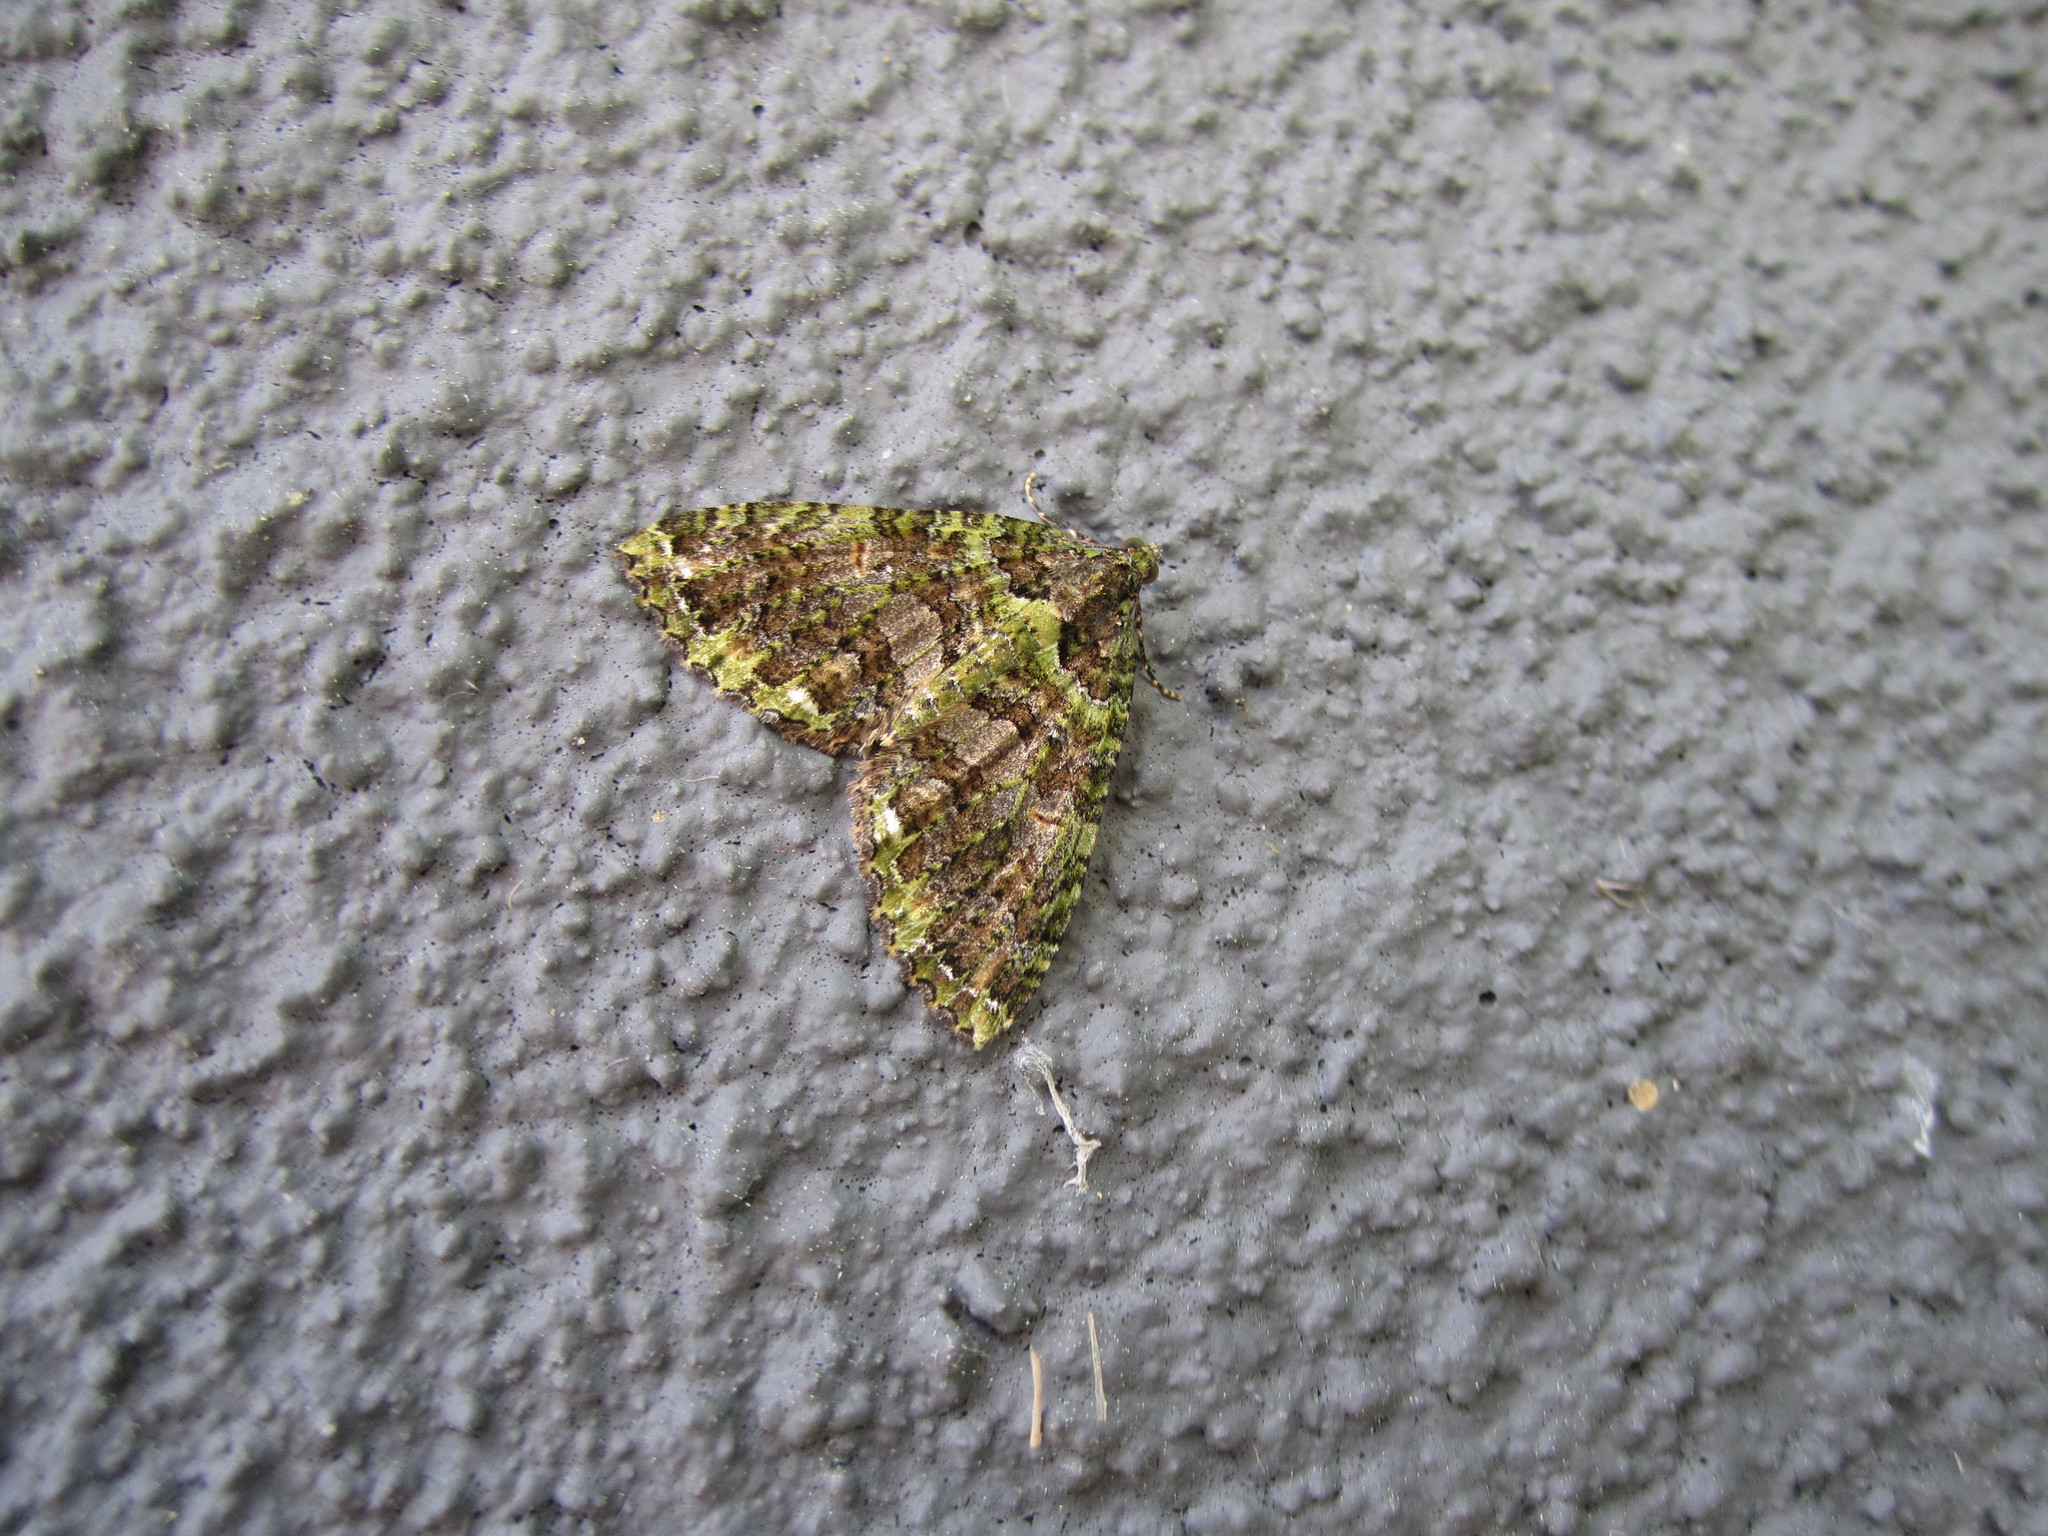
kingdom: Animalia
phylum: Arthropoda
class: Insecta
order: Lepidoptera
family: Geometridae
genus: Austrocidaria
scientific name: Austrocidaria similata
